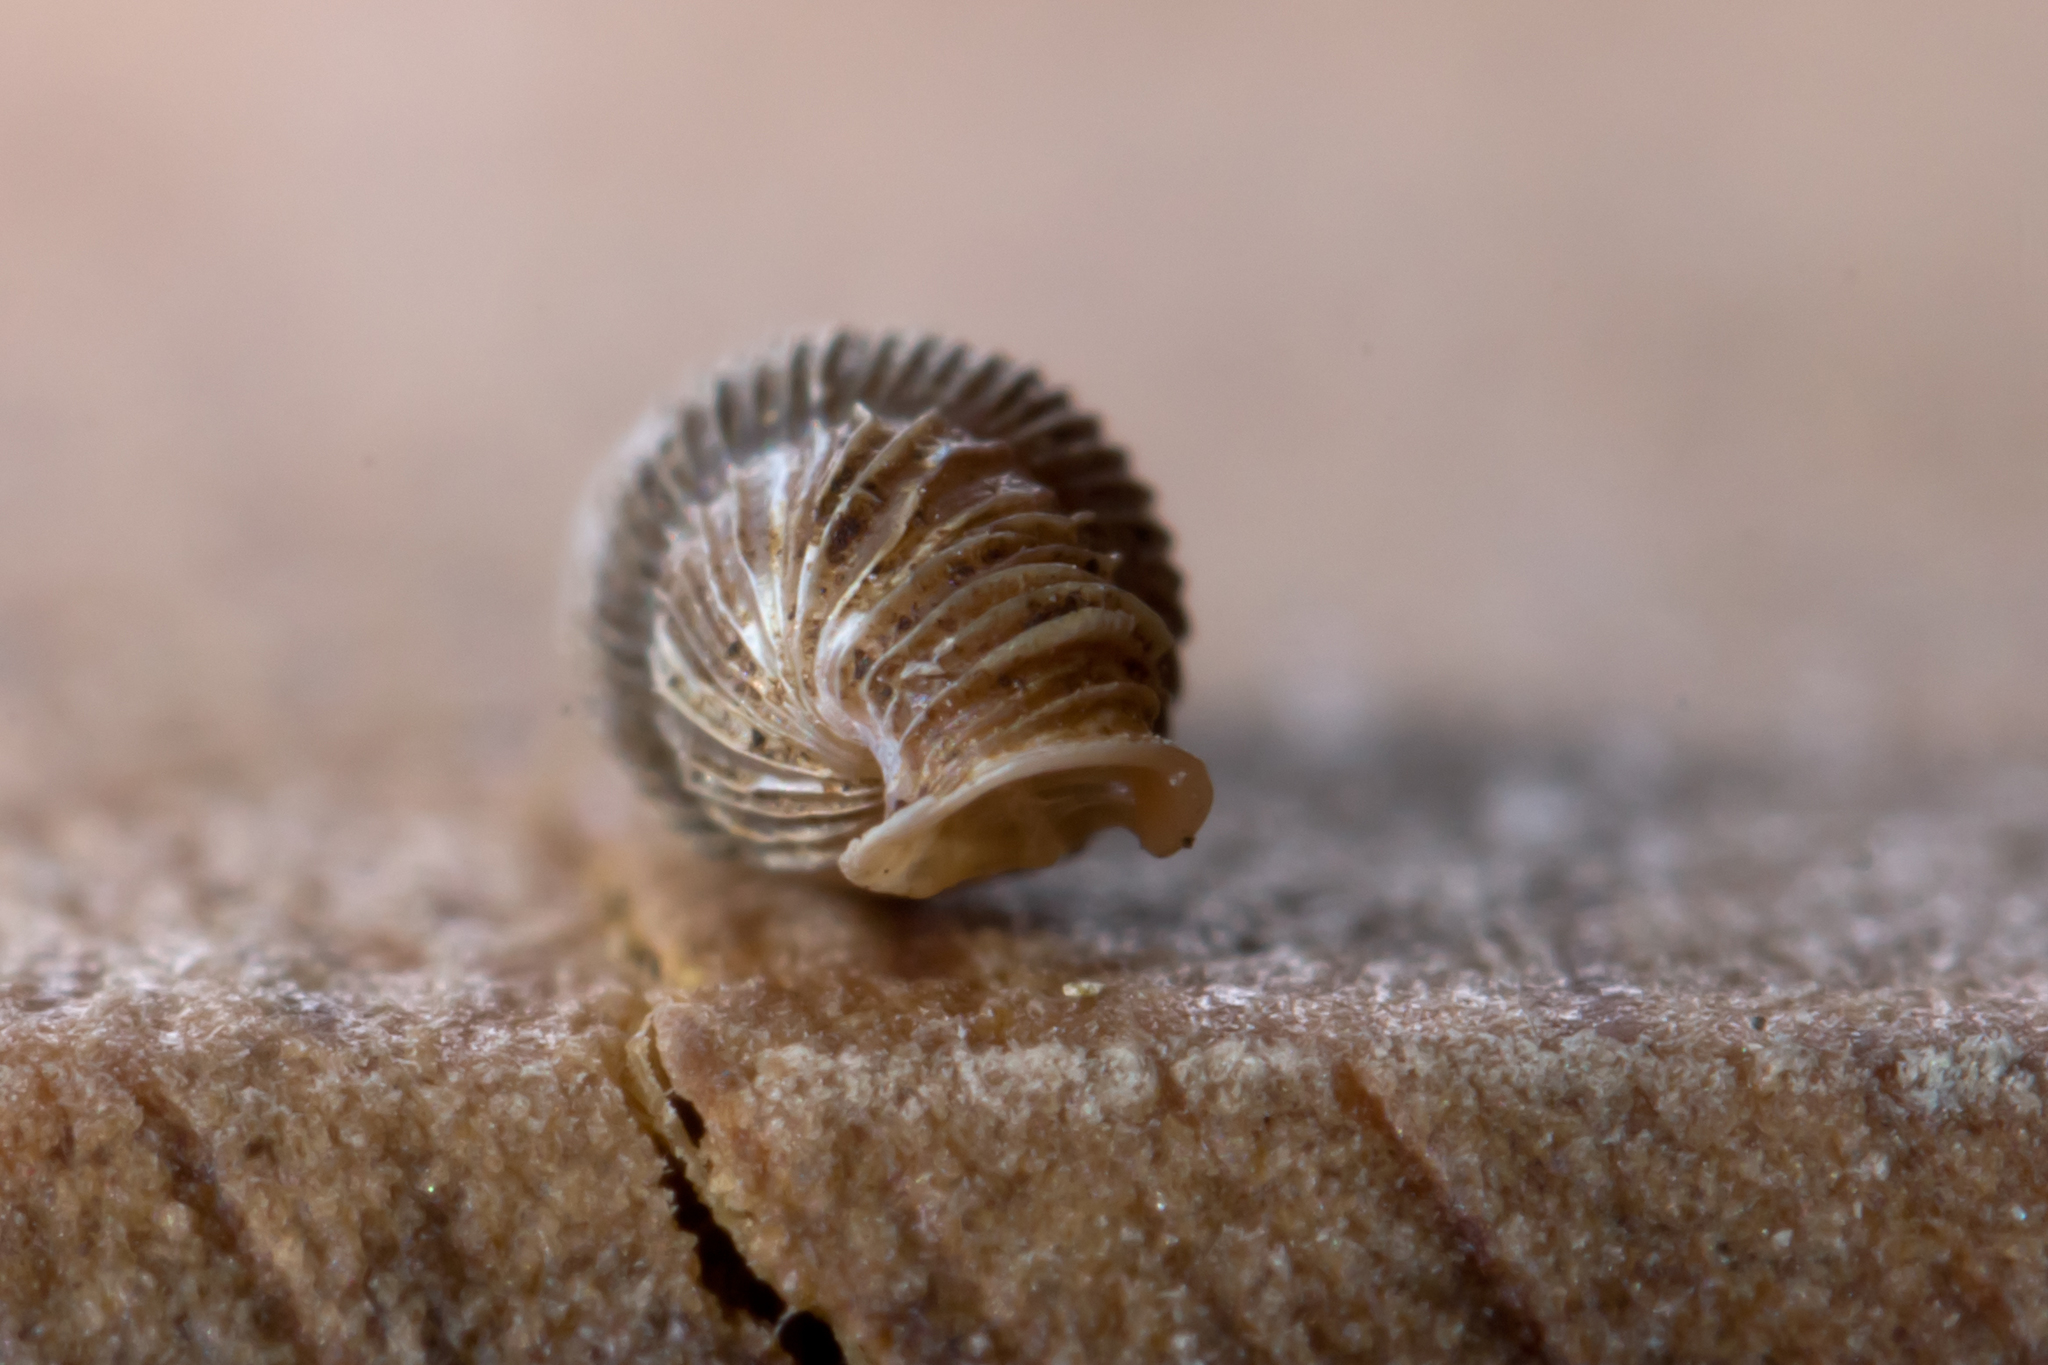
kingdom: Animalia
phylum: Mollusca
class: Gastropoda
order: Stylommatophora
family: Clausiliidae
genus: Ruthenica
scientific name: Ruthenica filograna
